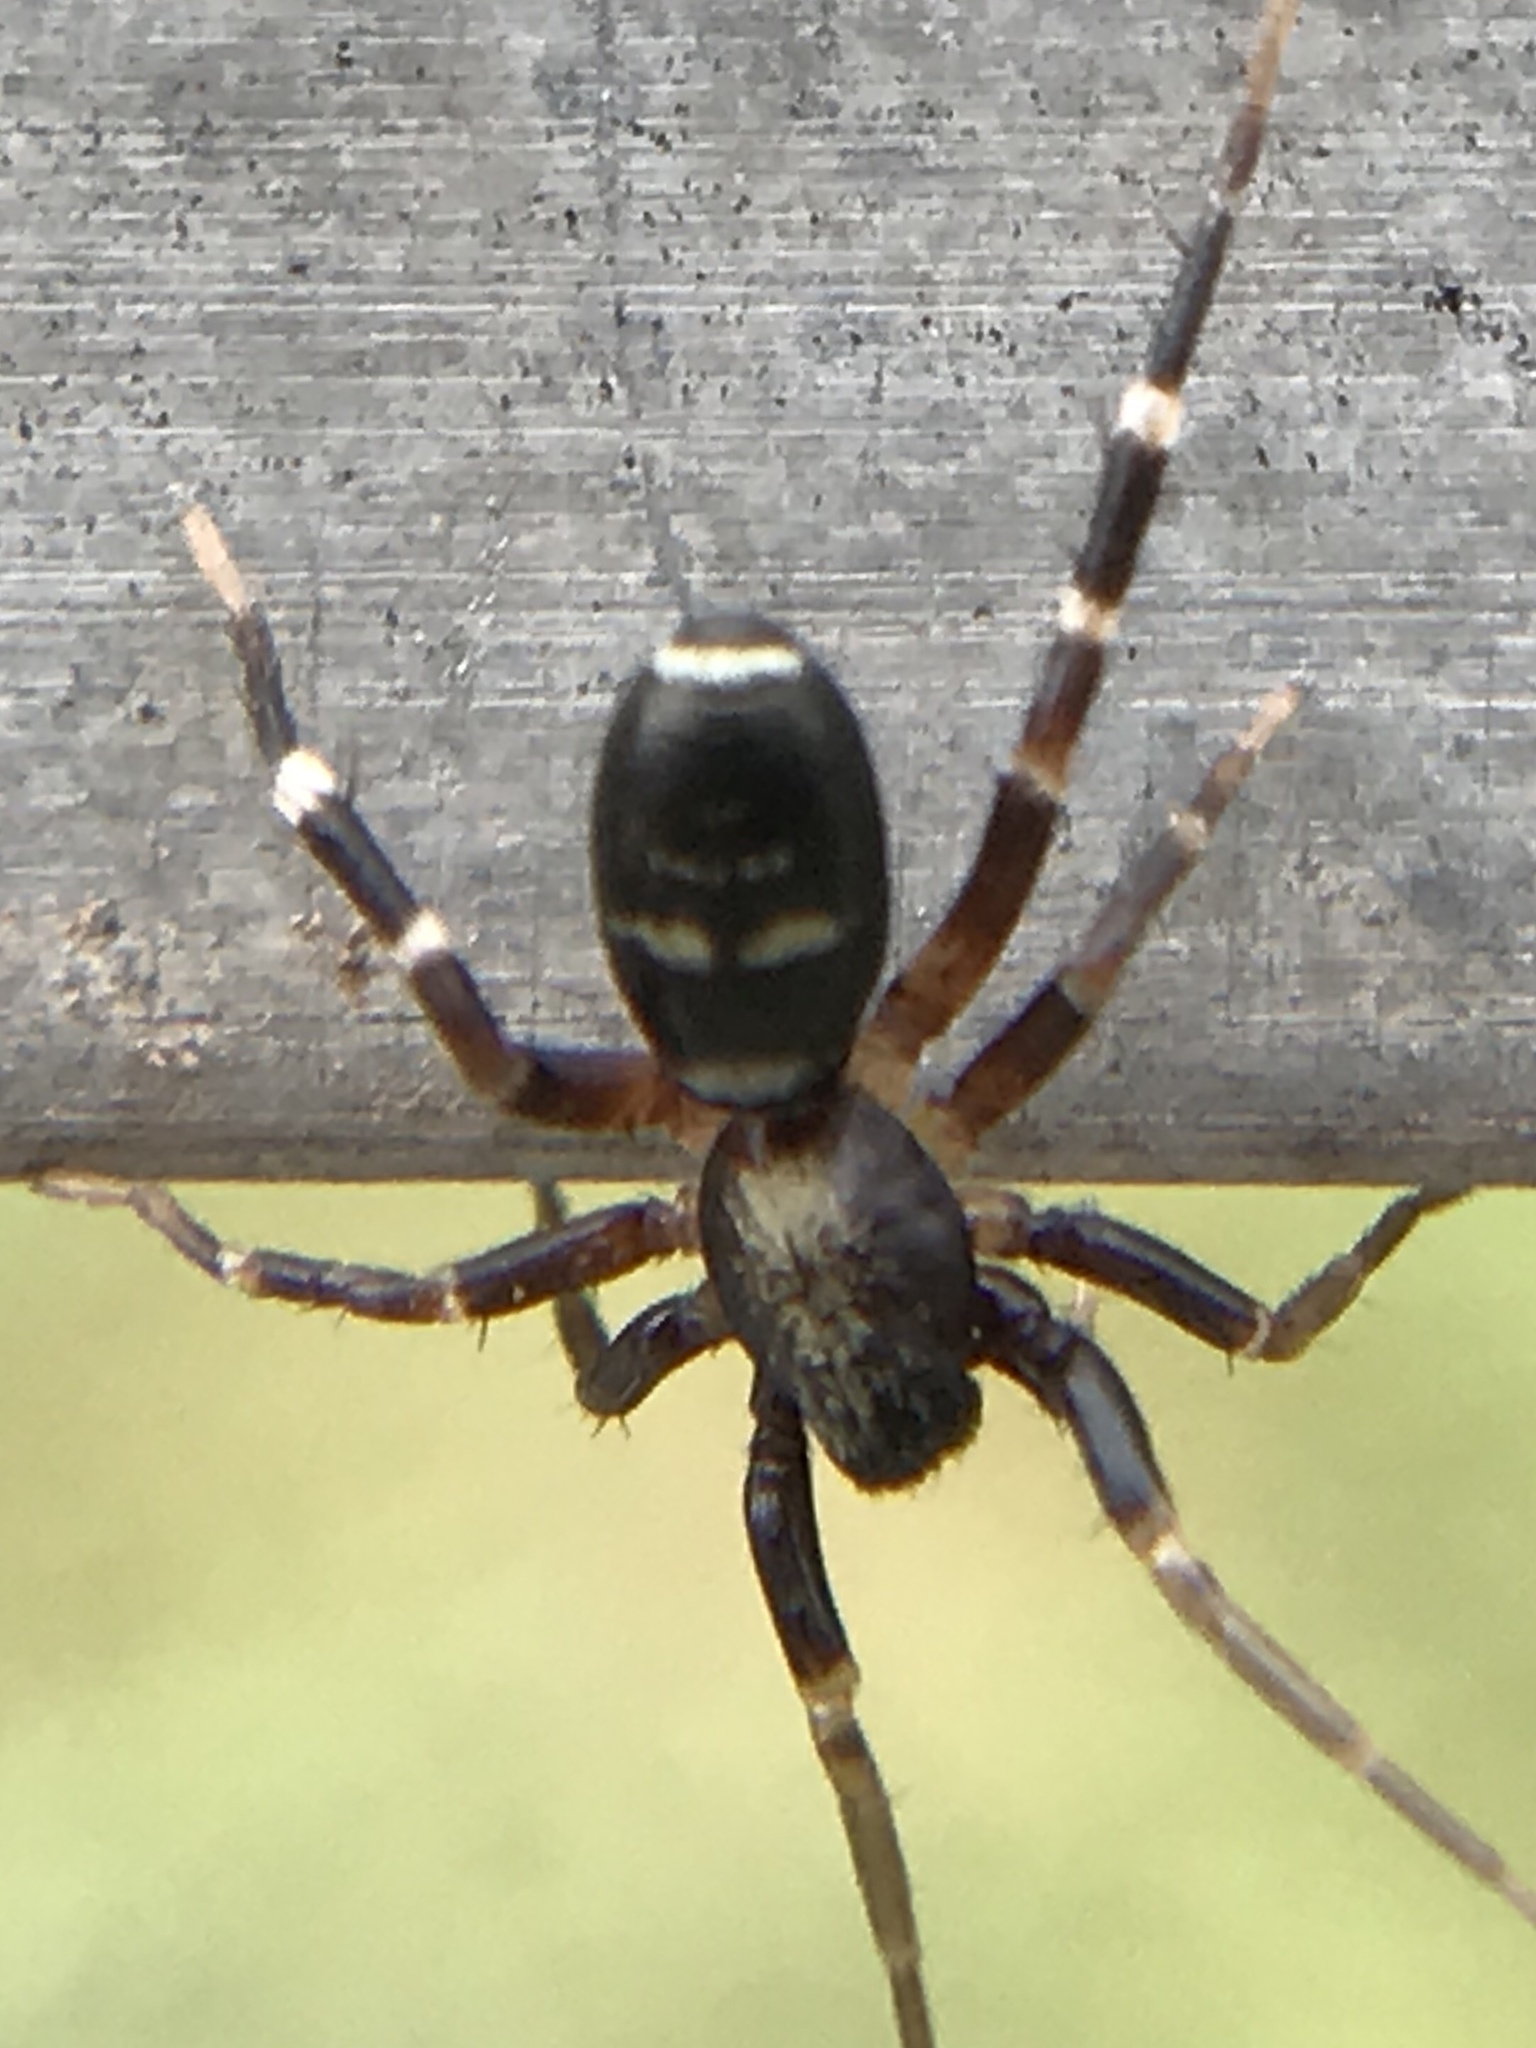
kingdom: Animalia
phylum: Arthropoda
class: Arachnida
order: Araneae
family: Corinnidae
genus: Castianeira
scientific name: Castianeira longipalpa
